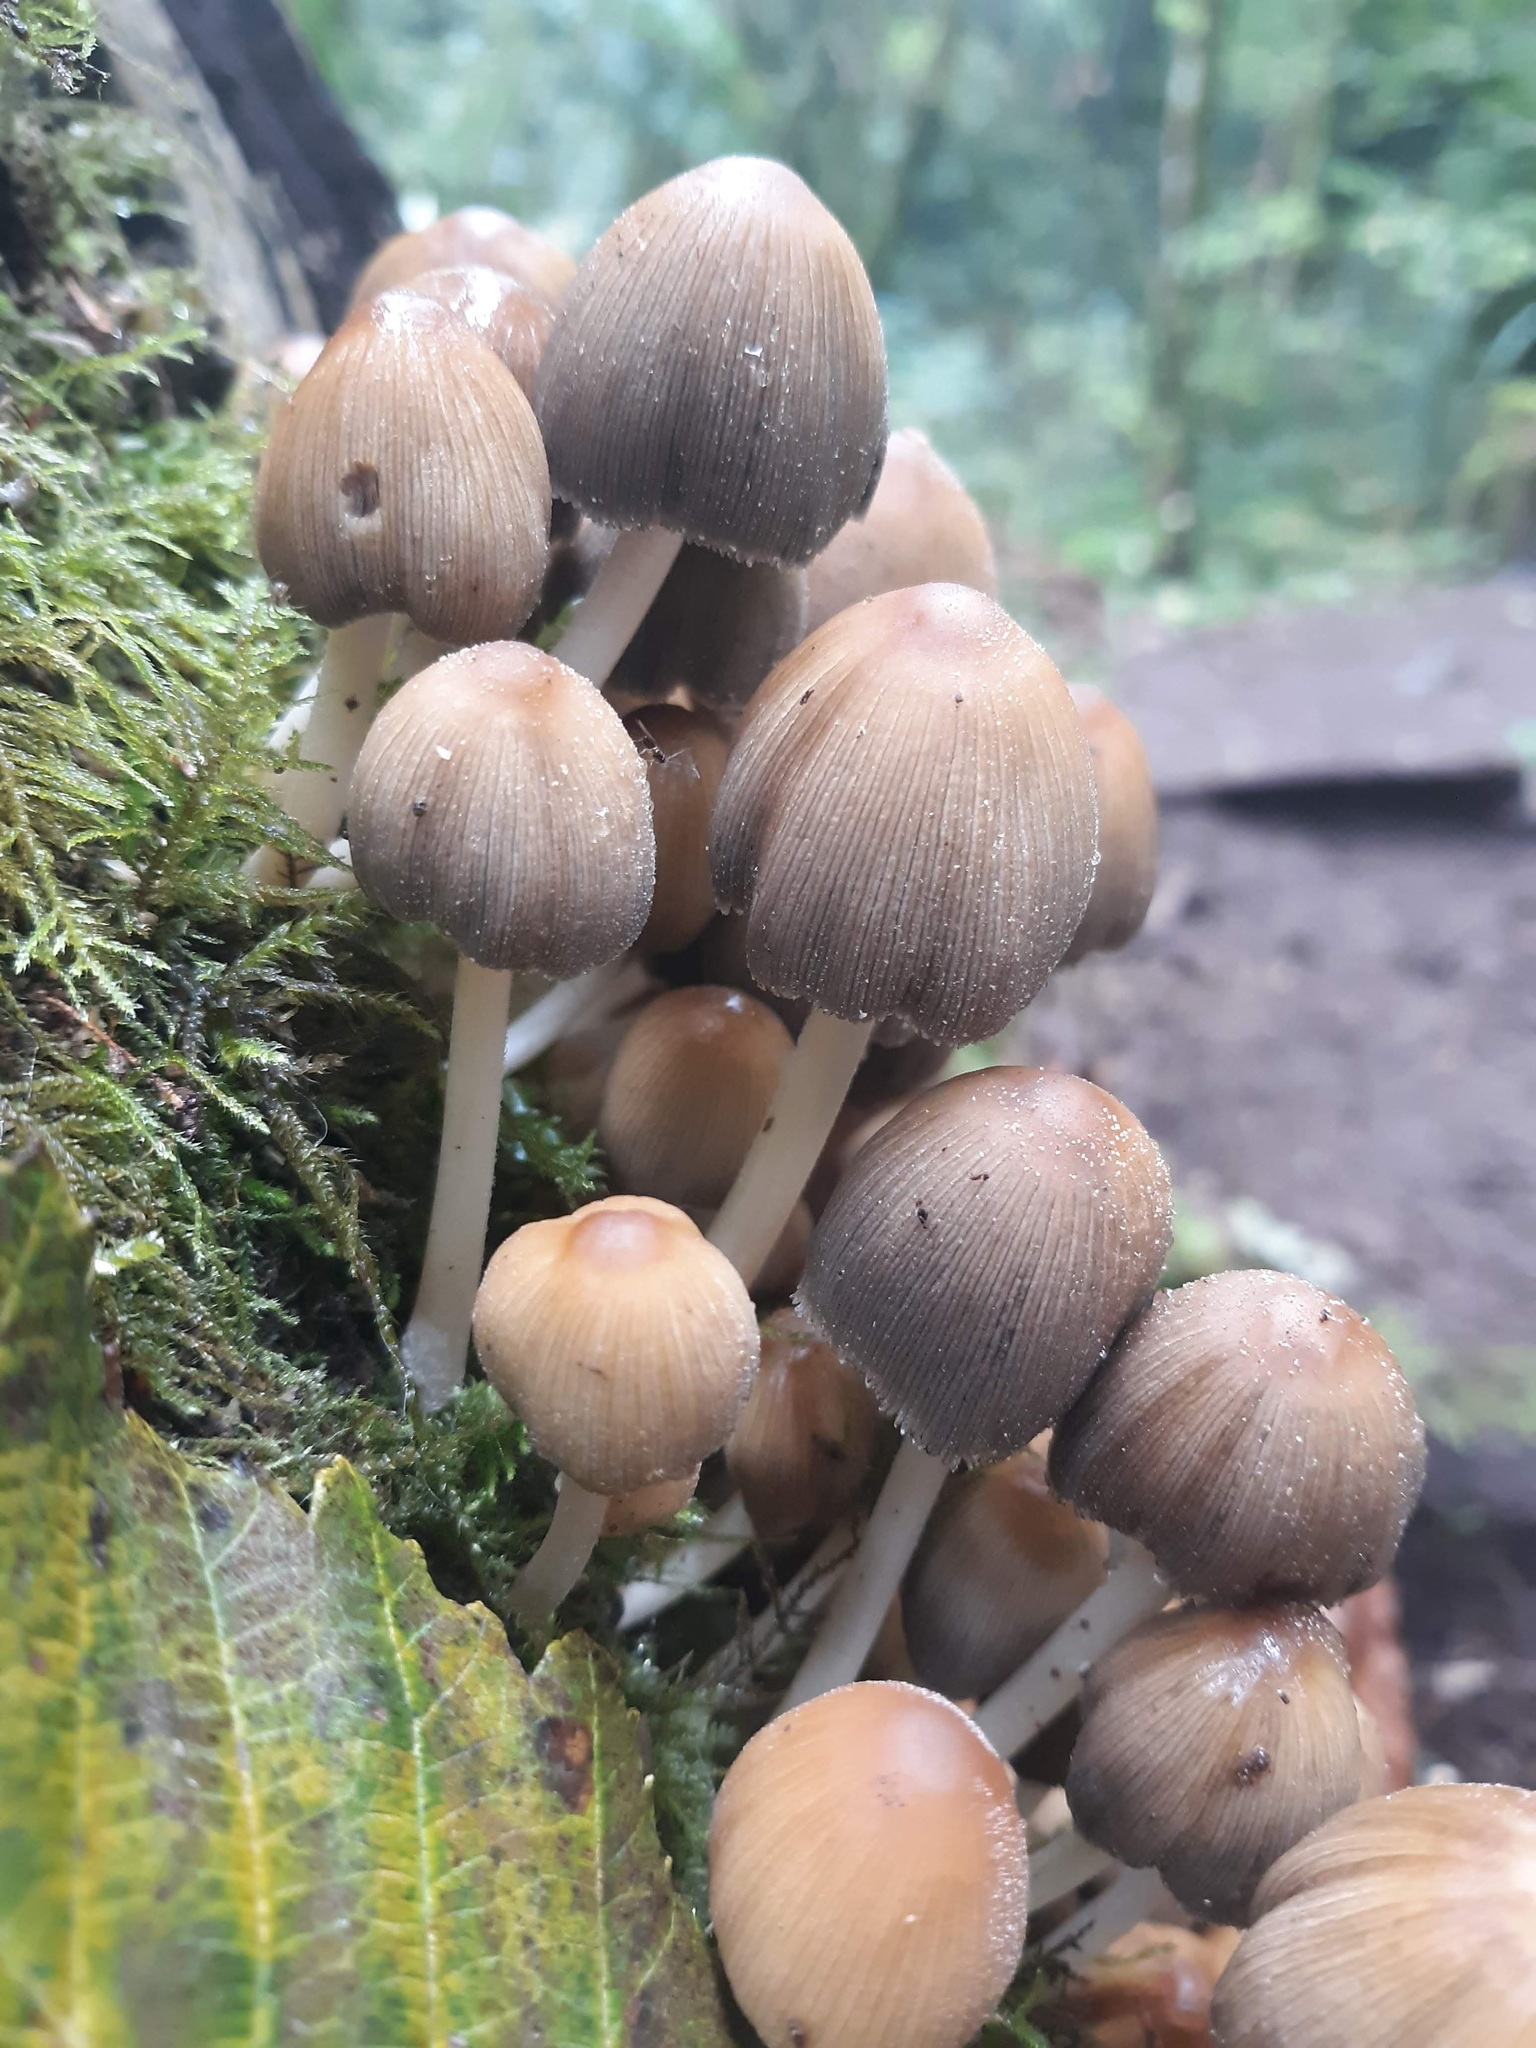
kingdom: Fungi
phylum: Basidiomycota
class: Agaricomycetes
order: Agaricales
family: Psathyrellaceae
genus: Coprinellus
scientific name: Coprinellus micaceus
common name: Glistening ink-cap
